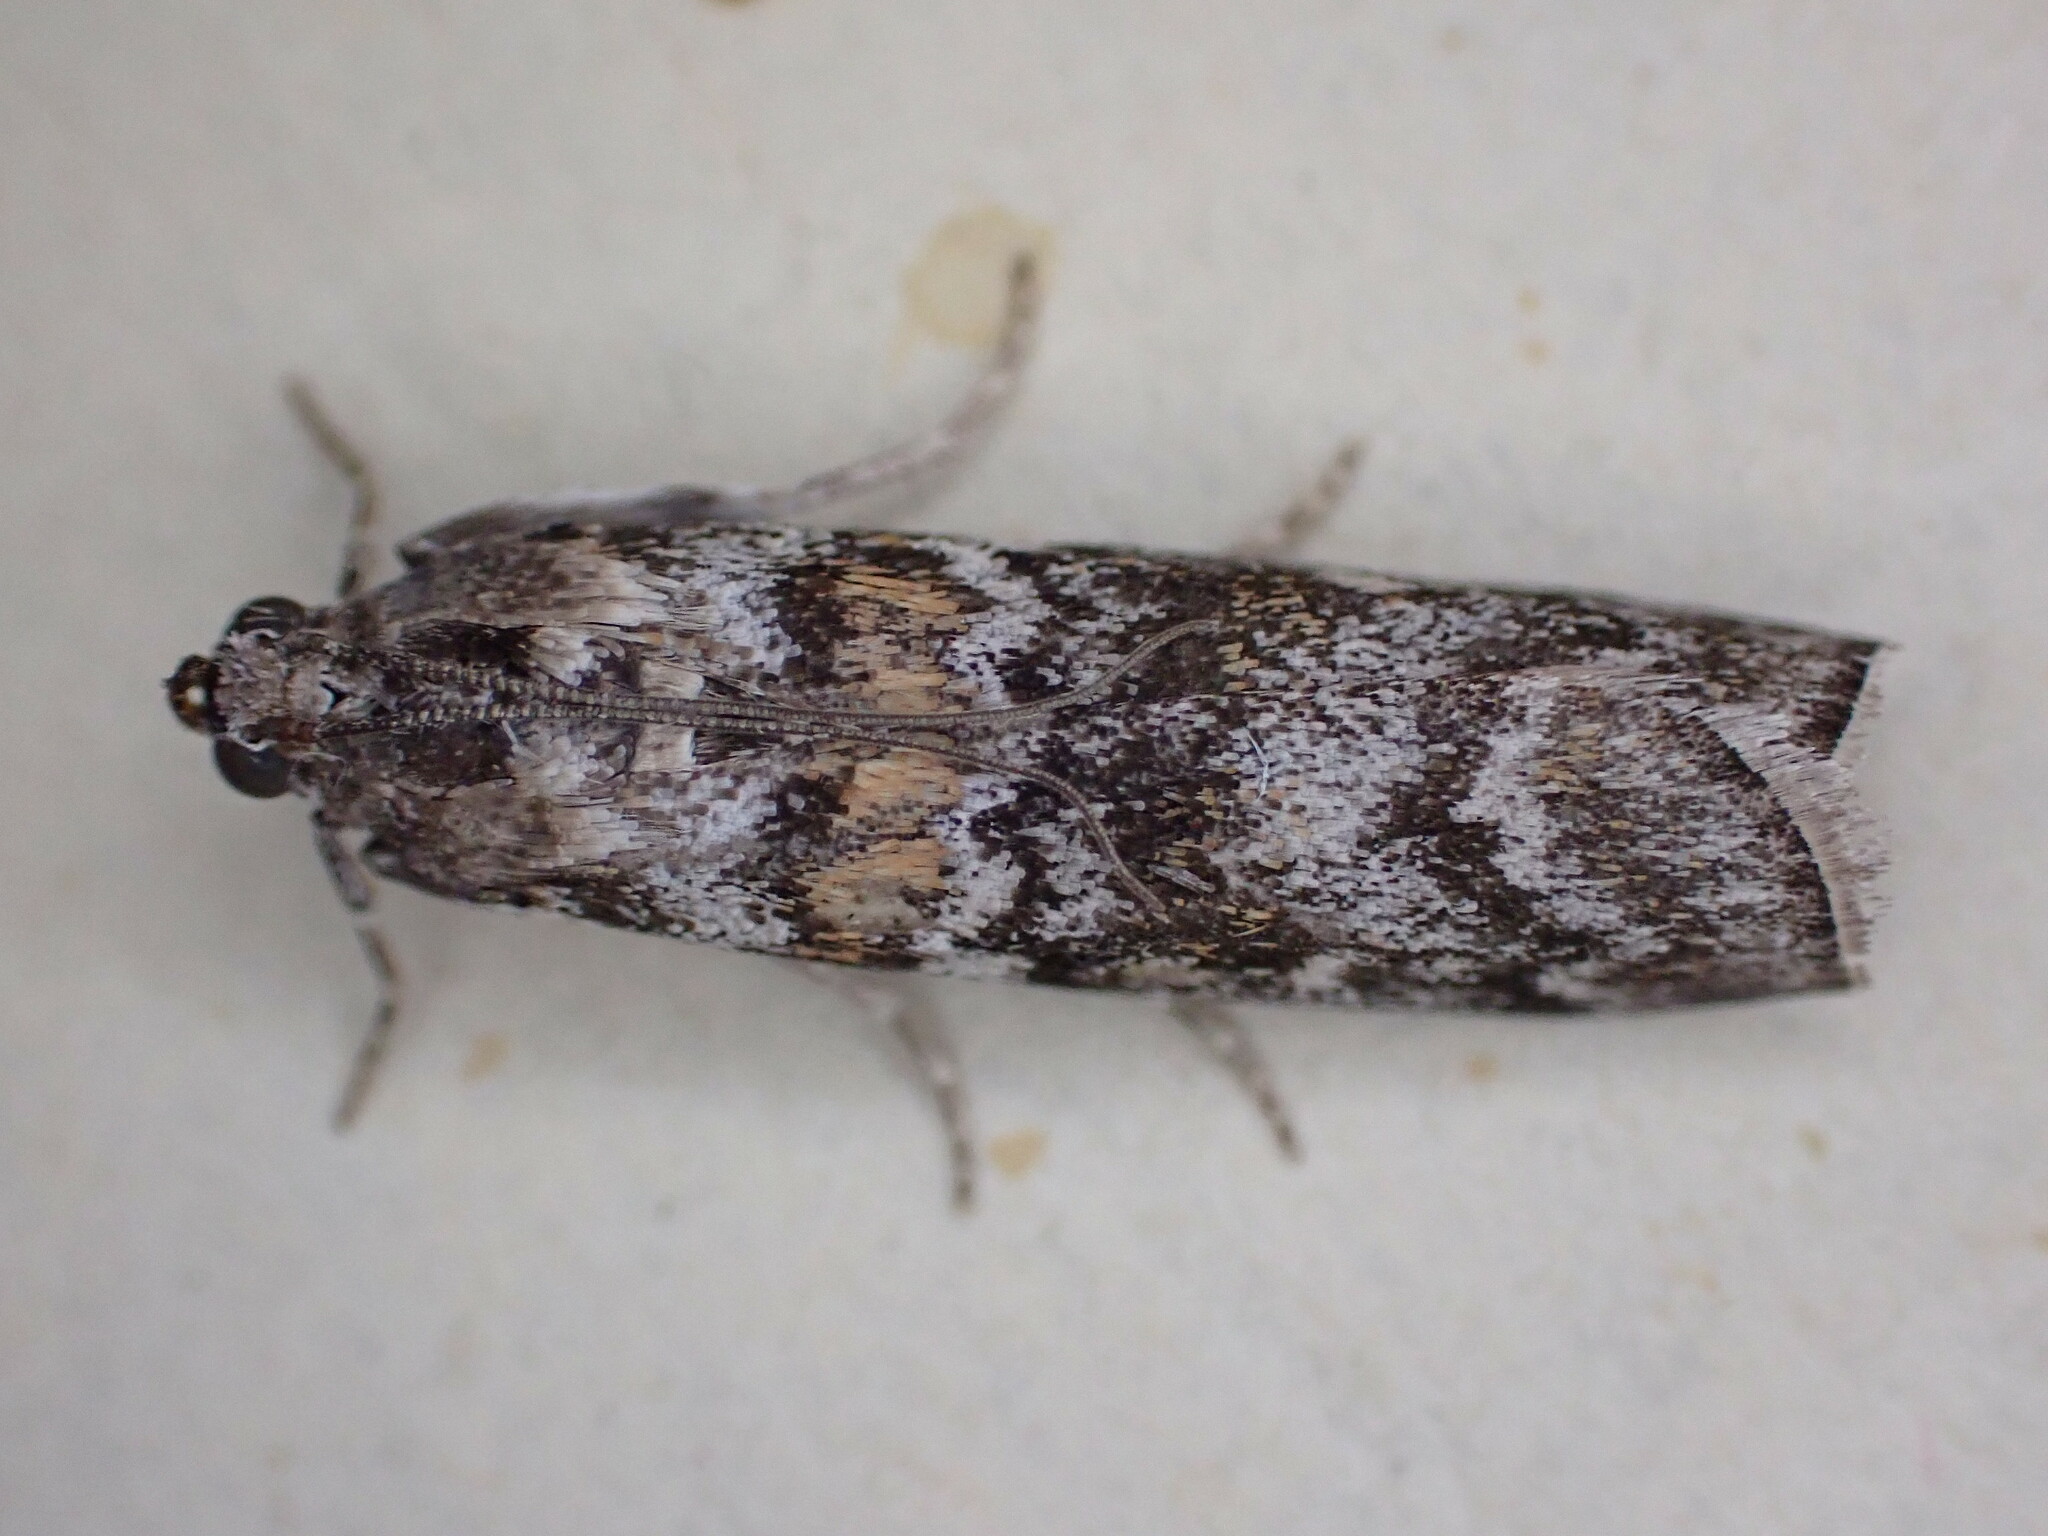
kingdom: Animalia
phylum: Arthropoda
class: Insecta
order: Lepidoptera
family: Pyralidae
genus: Dioryctria
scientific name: Dioryctria abietella
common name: Dark pine knot-horn
